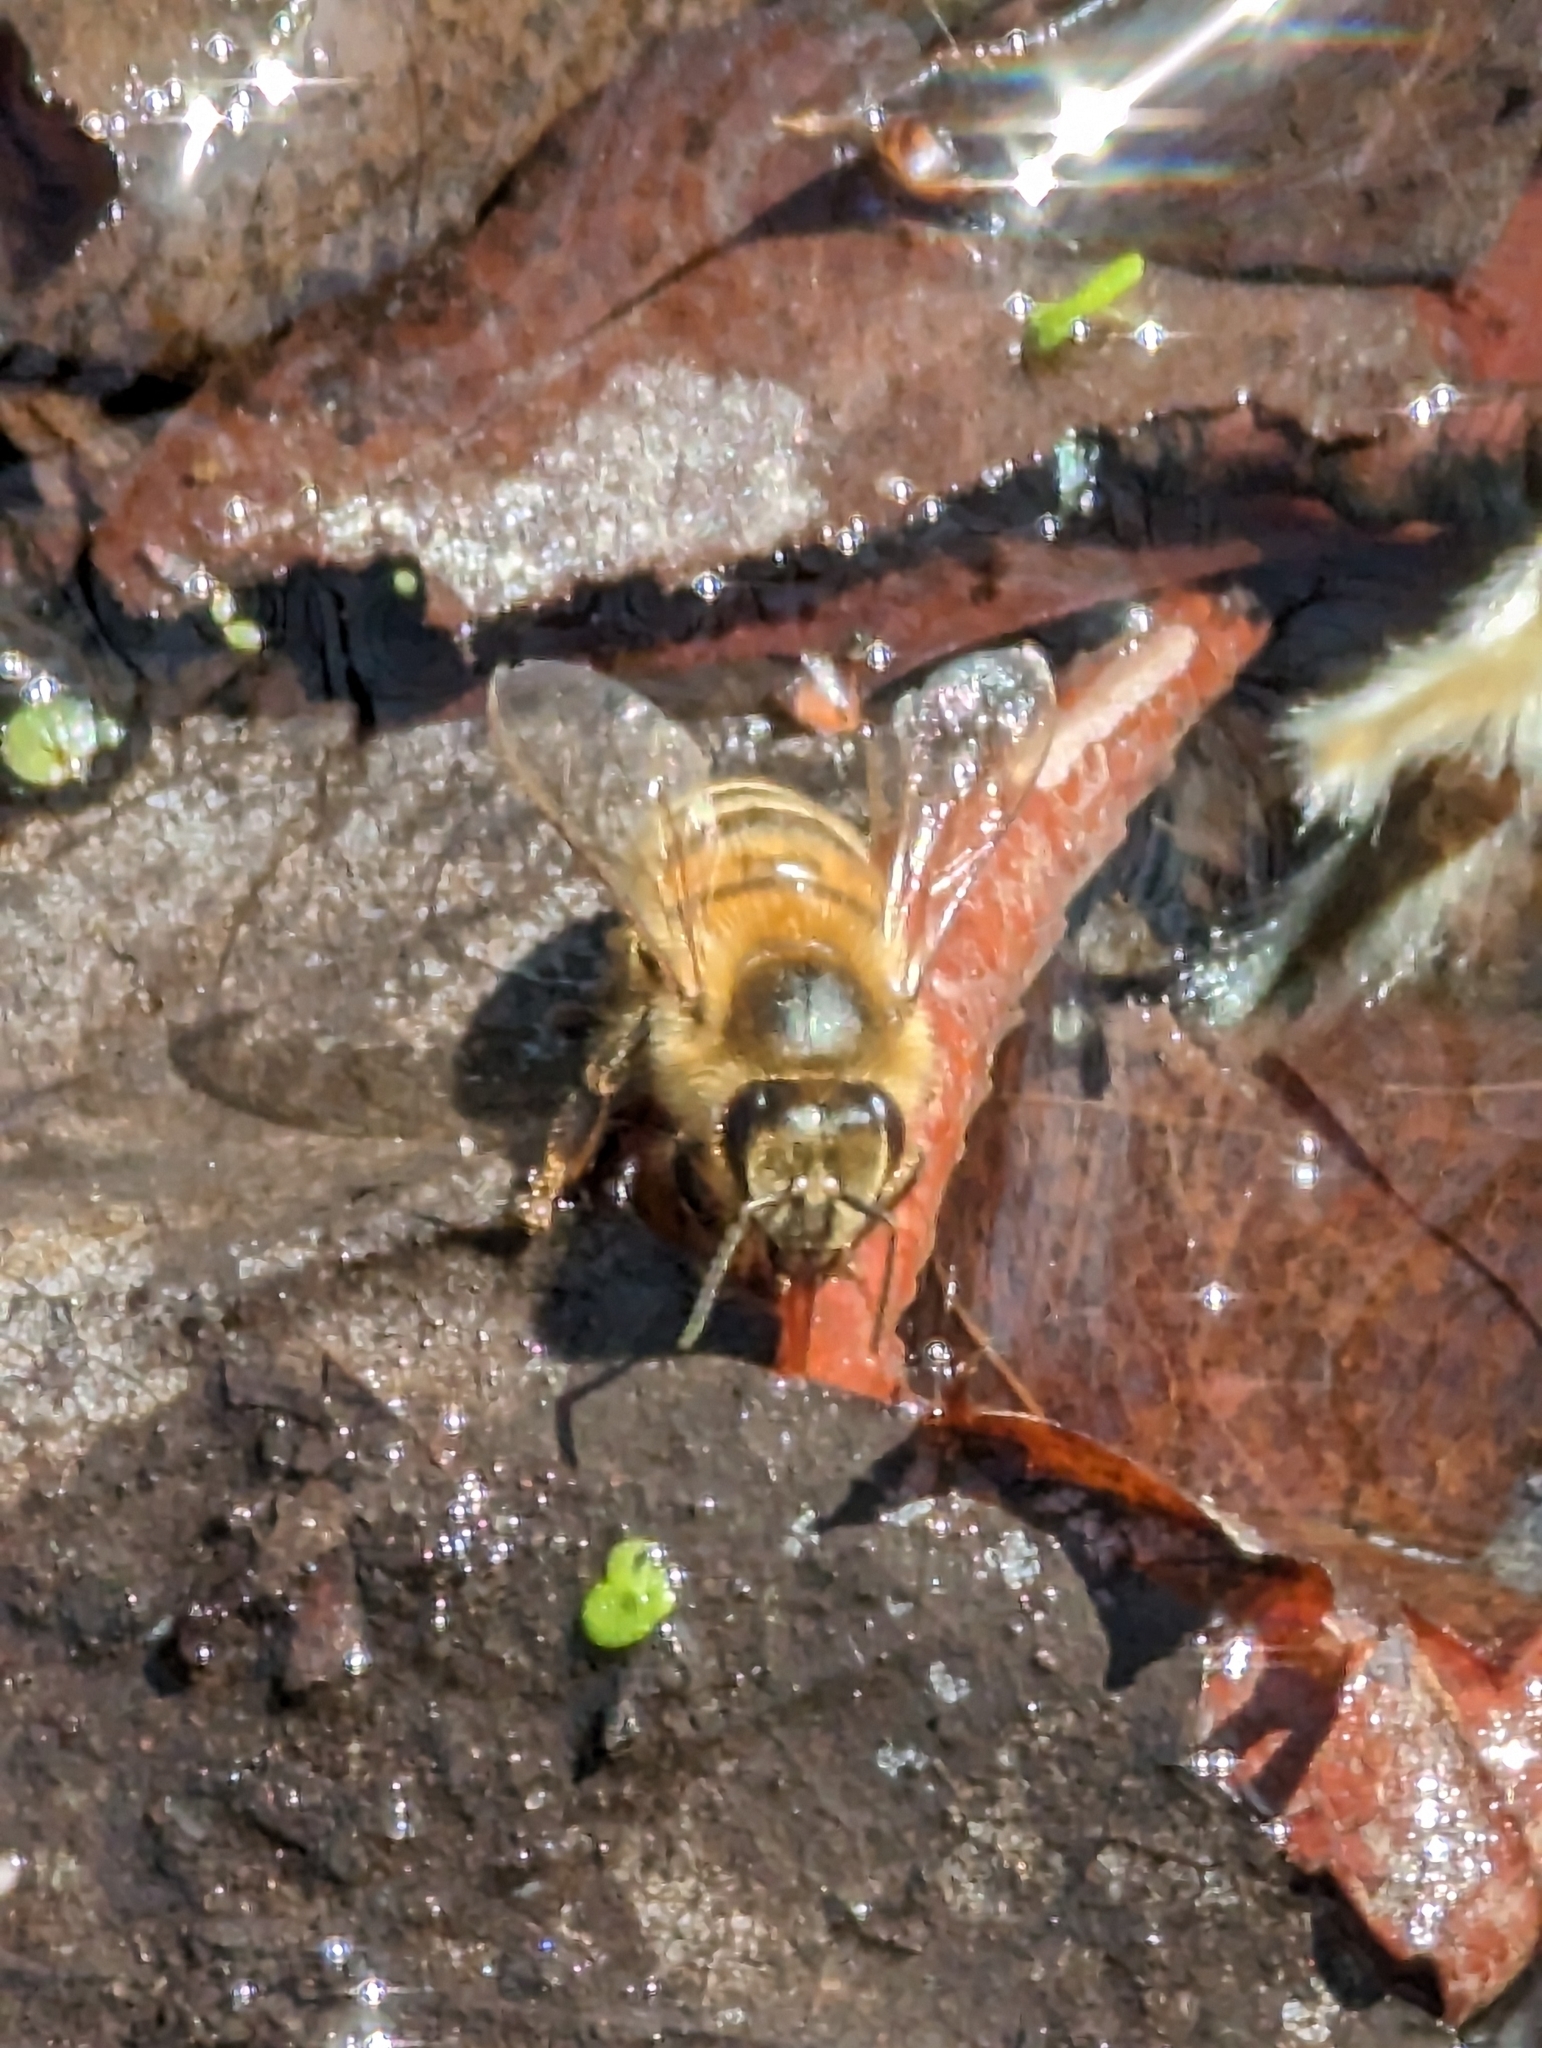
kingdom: Animalia
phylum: Arthropoda
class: Insecta
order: Hymenoptera
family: Apidae
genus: Apis
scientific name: Apis mellifera
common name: Honey bee
